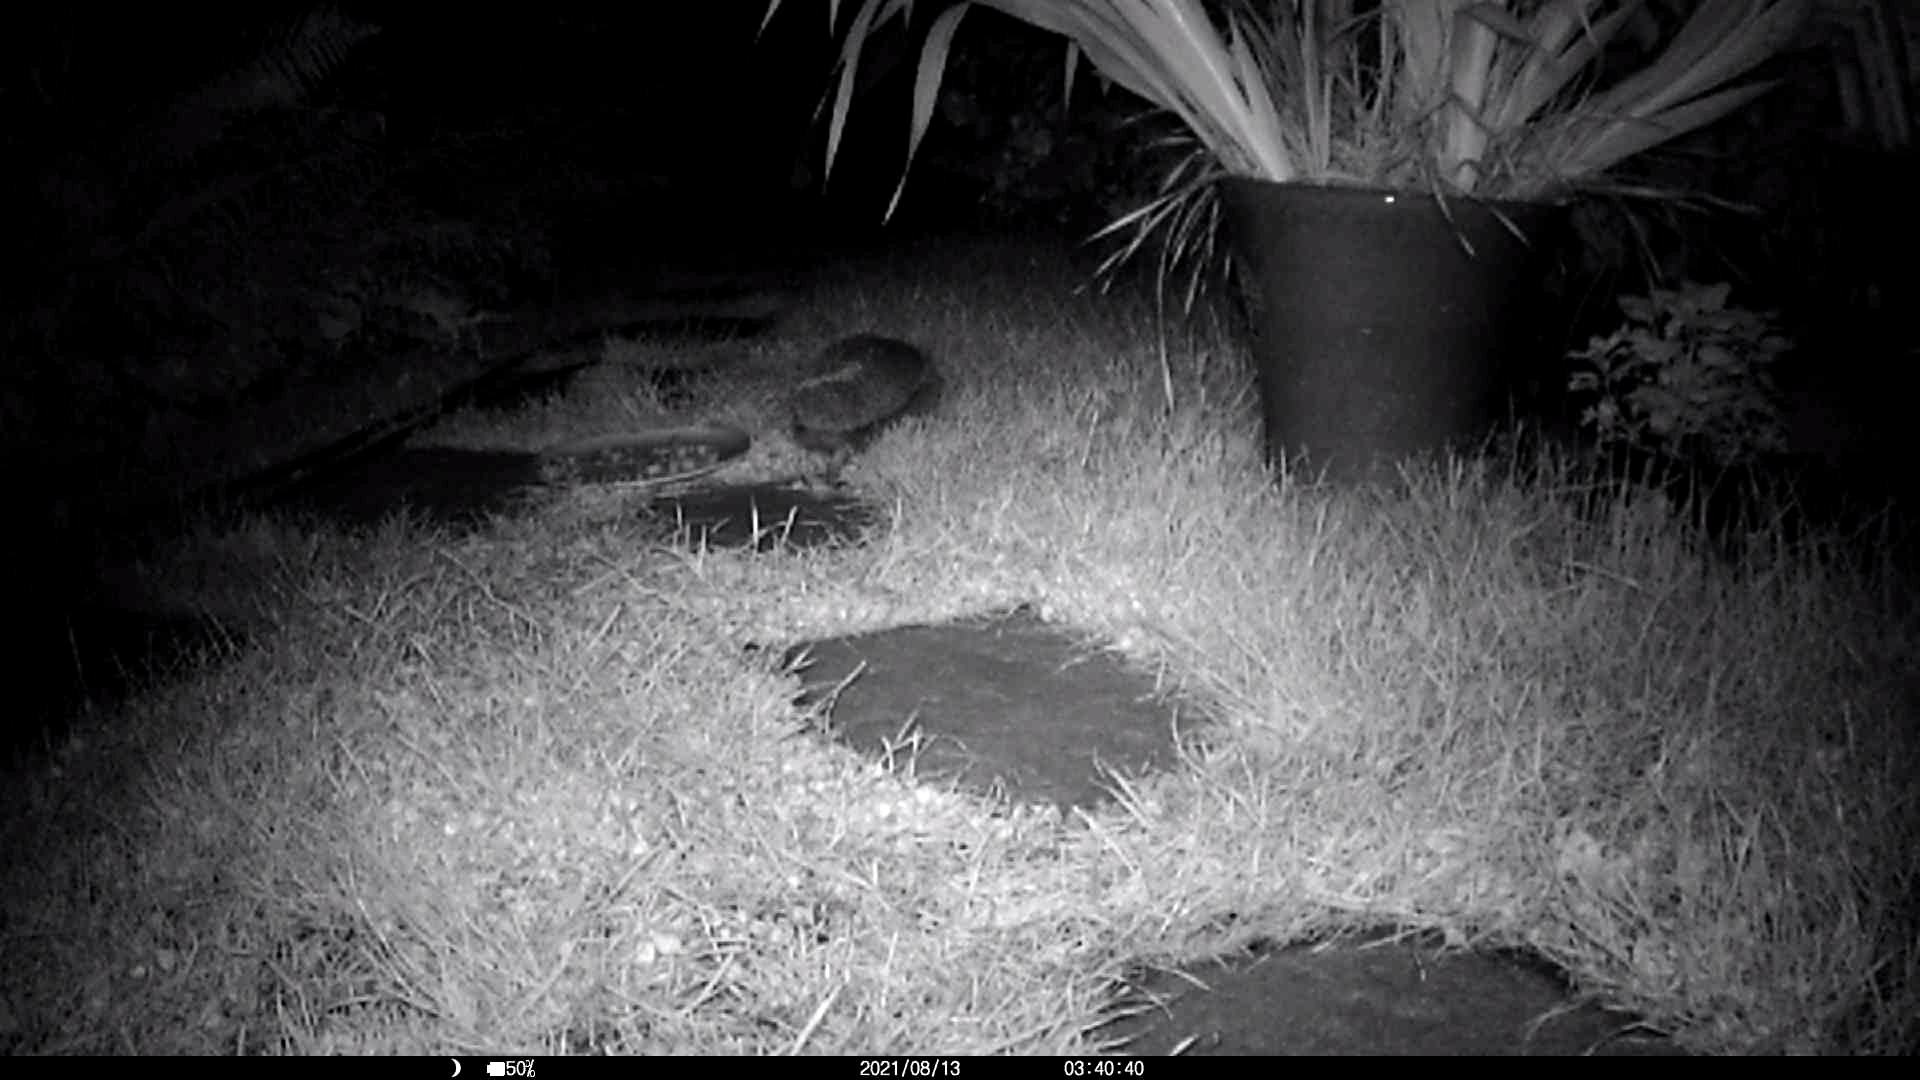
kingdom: Animalia
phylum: Chordata
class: Mammalia
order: Erinaceomorpha
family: Erinaceidae
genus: Erinaceus
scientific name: Erinaceus europaeus
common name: West european hedgehog
